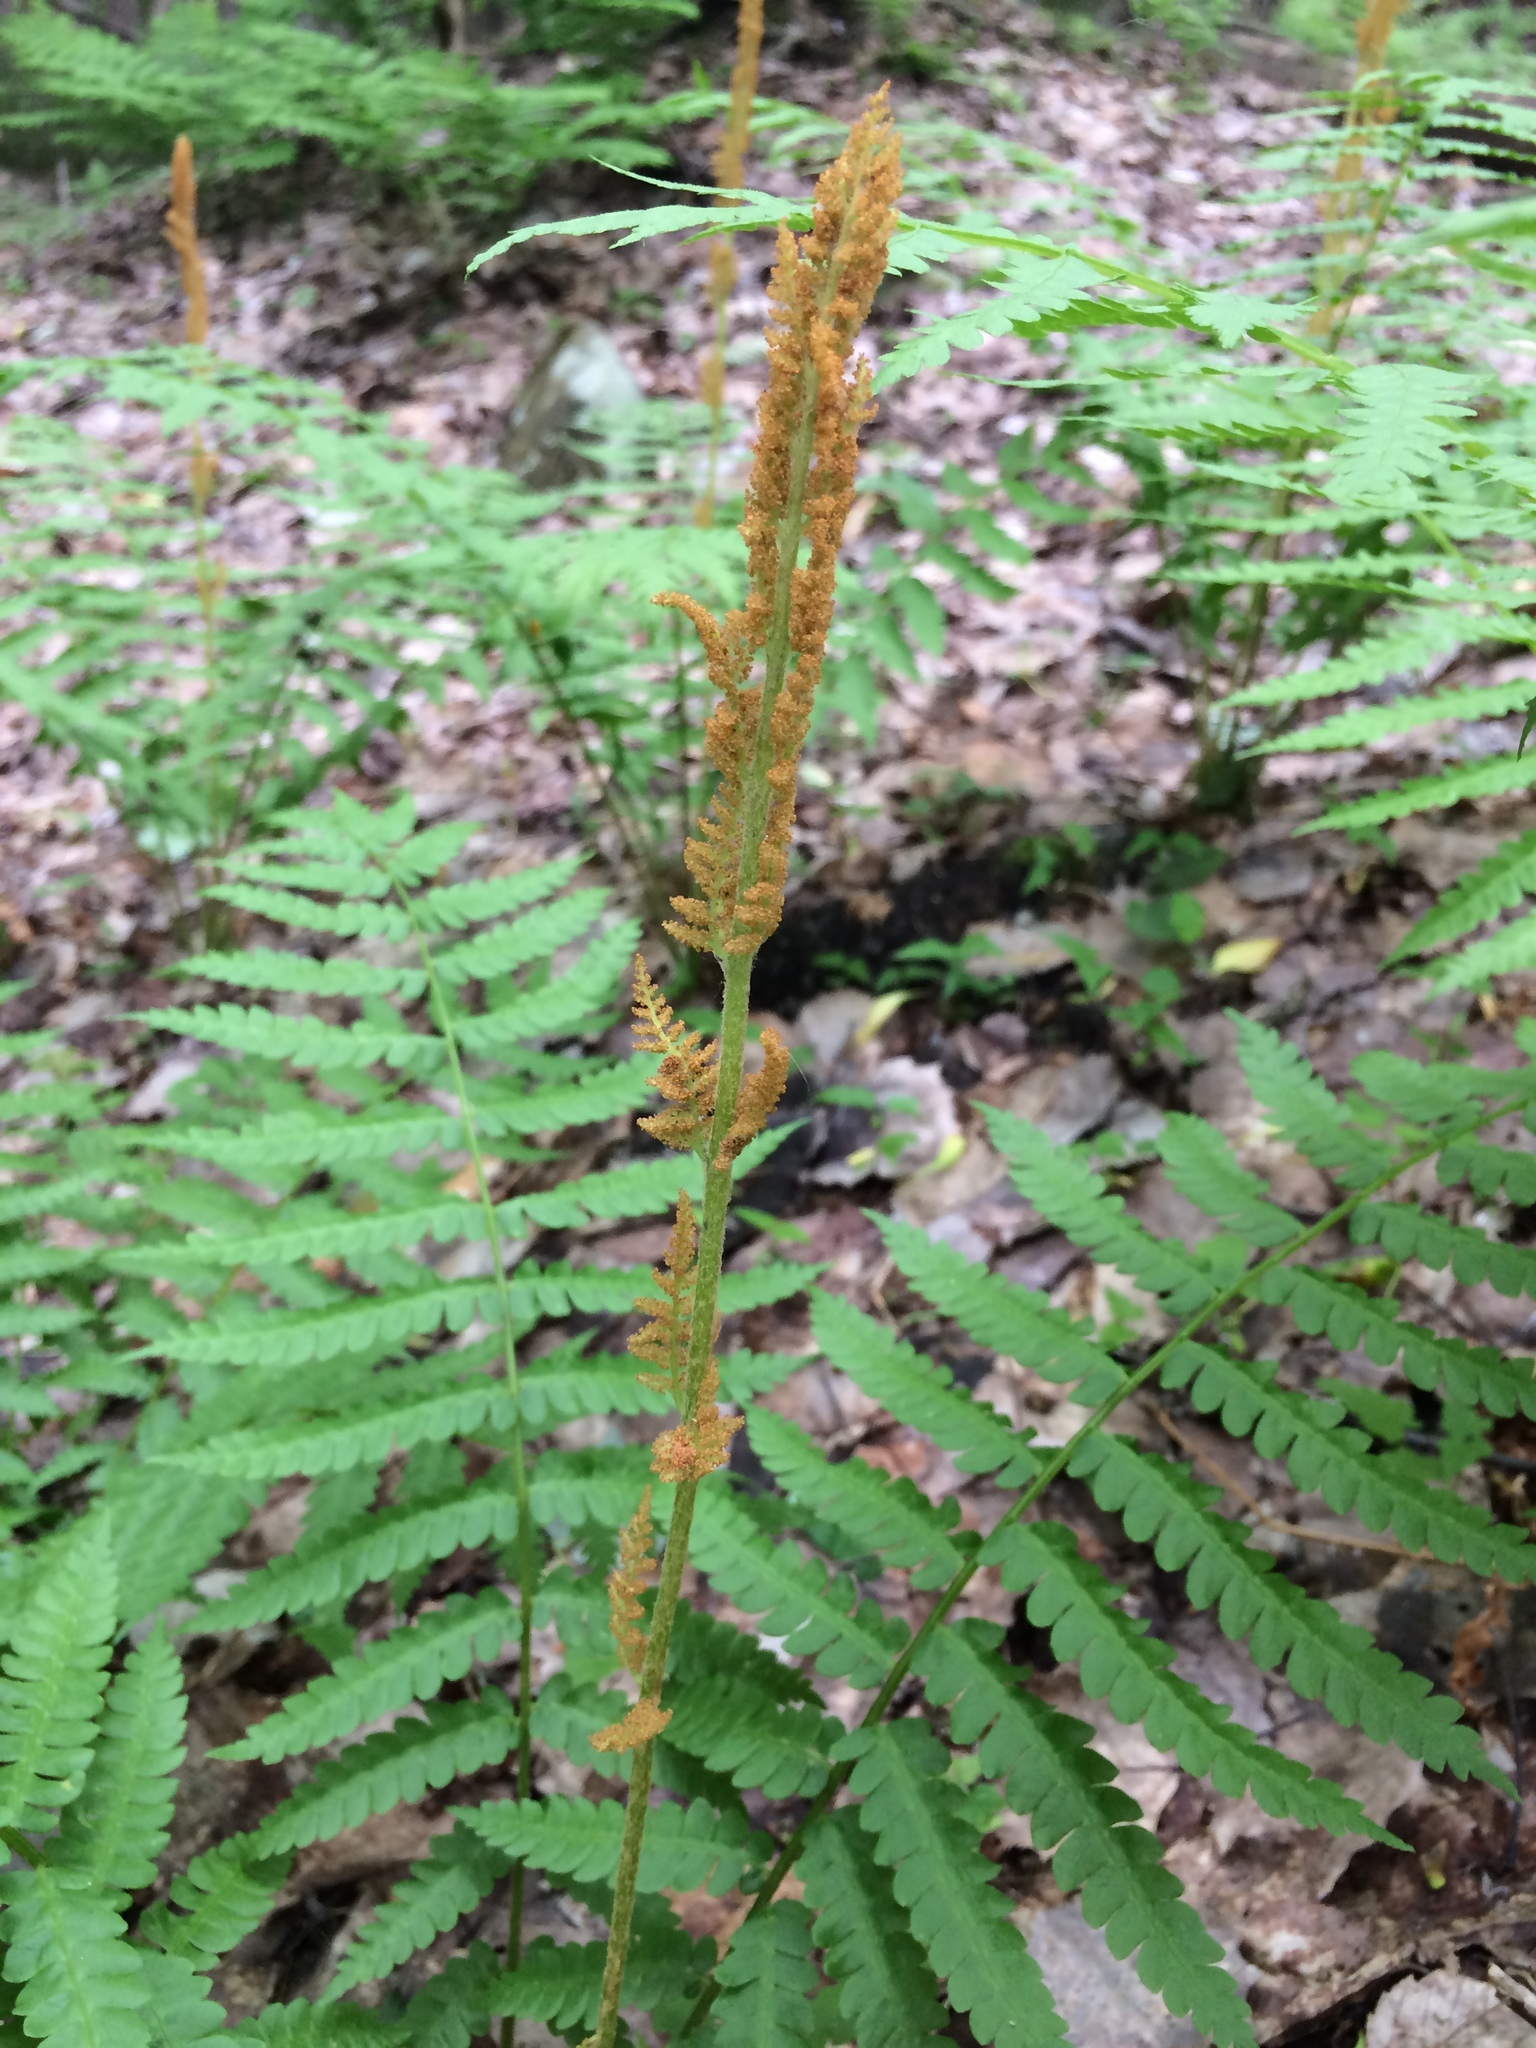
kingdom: Plantae
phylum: Tracheophyta
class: Polypodiopsida
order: Osmundales
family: Osmundaceae
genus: Osmundastrum
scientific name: Osmundastrum cinnamomeum
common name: Cinnamon fern
